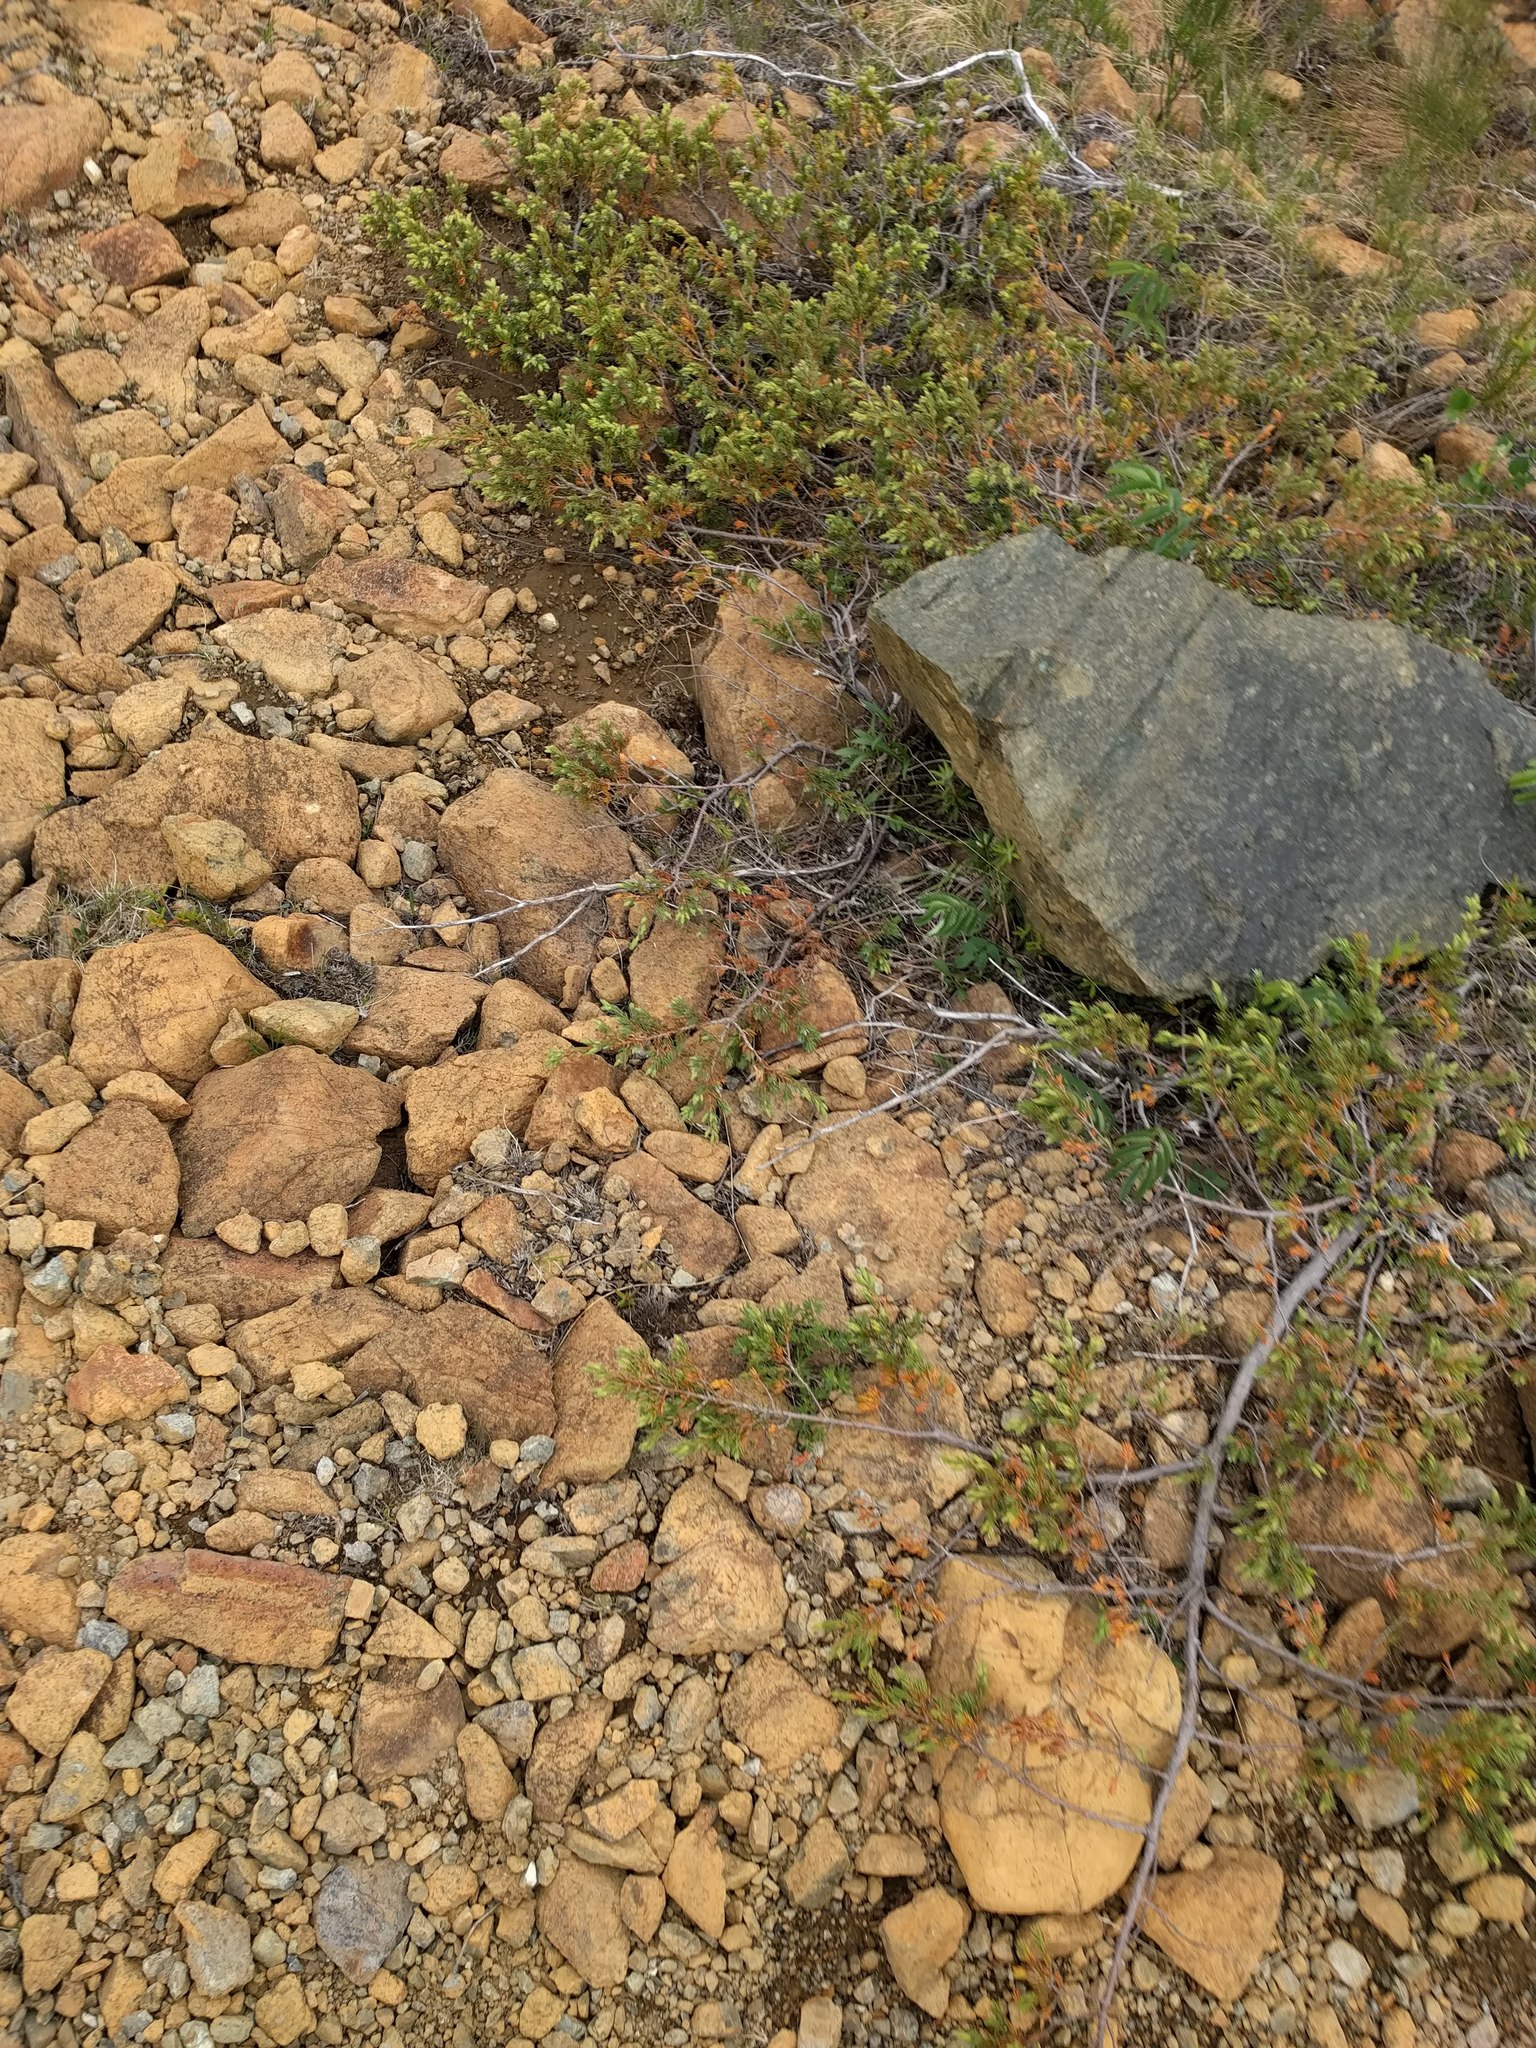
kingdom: Plantae
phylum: Tracheophyta
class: Pinopsida
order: Pinales
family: Cupressaceae
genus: Juniperus
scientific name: Juniperus communis
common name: Common juniper
